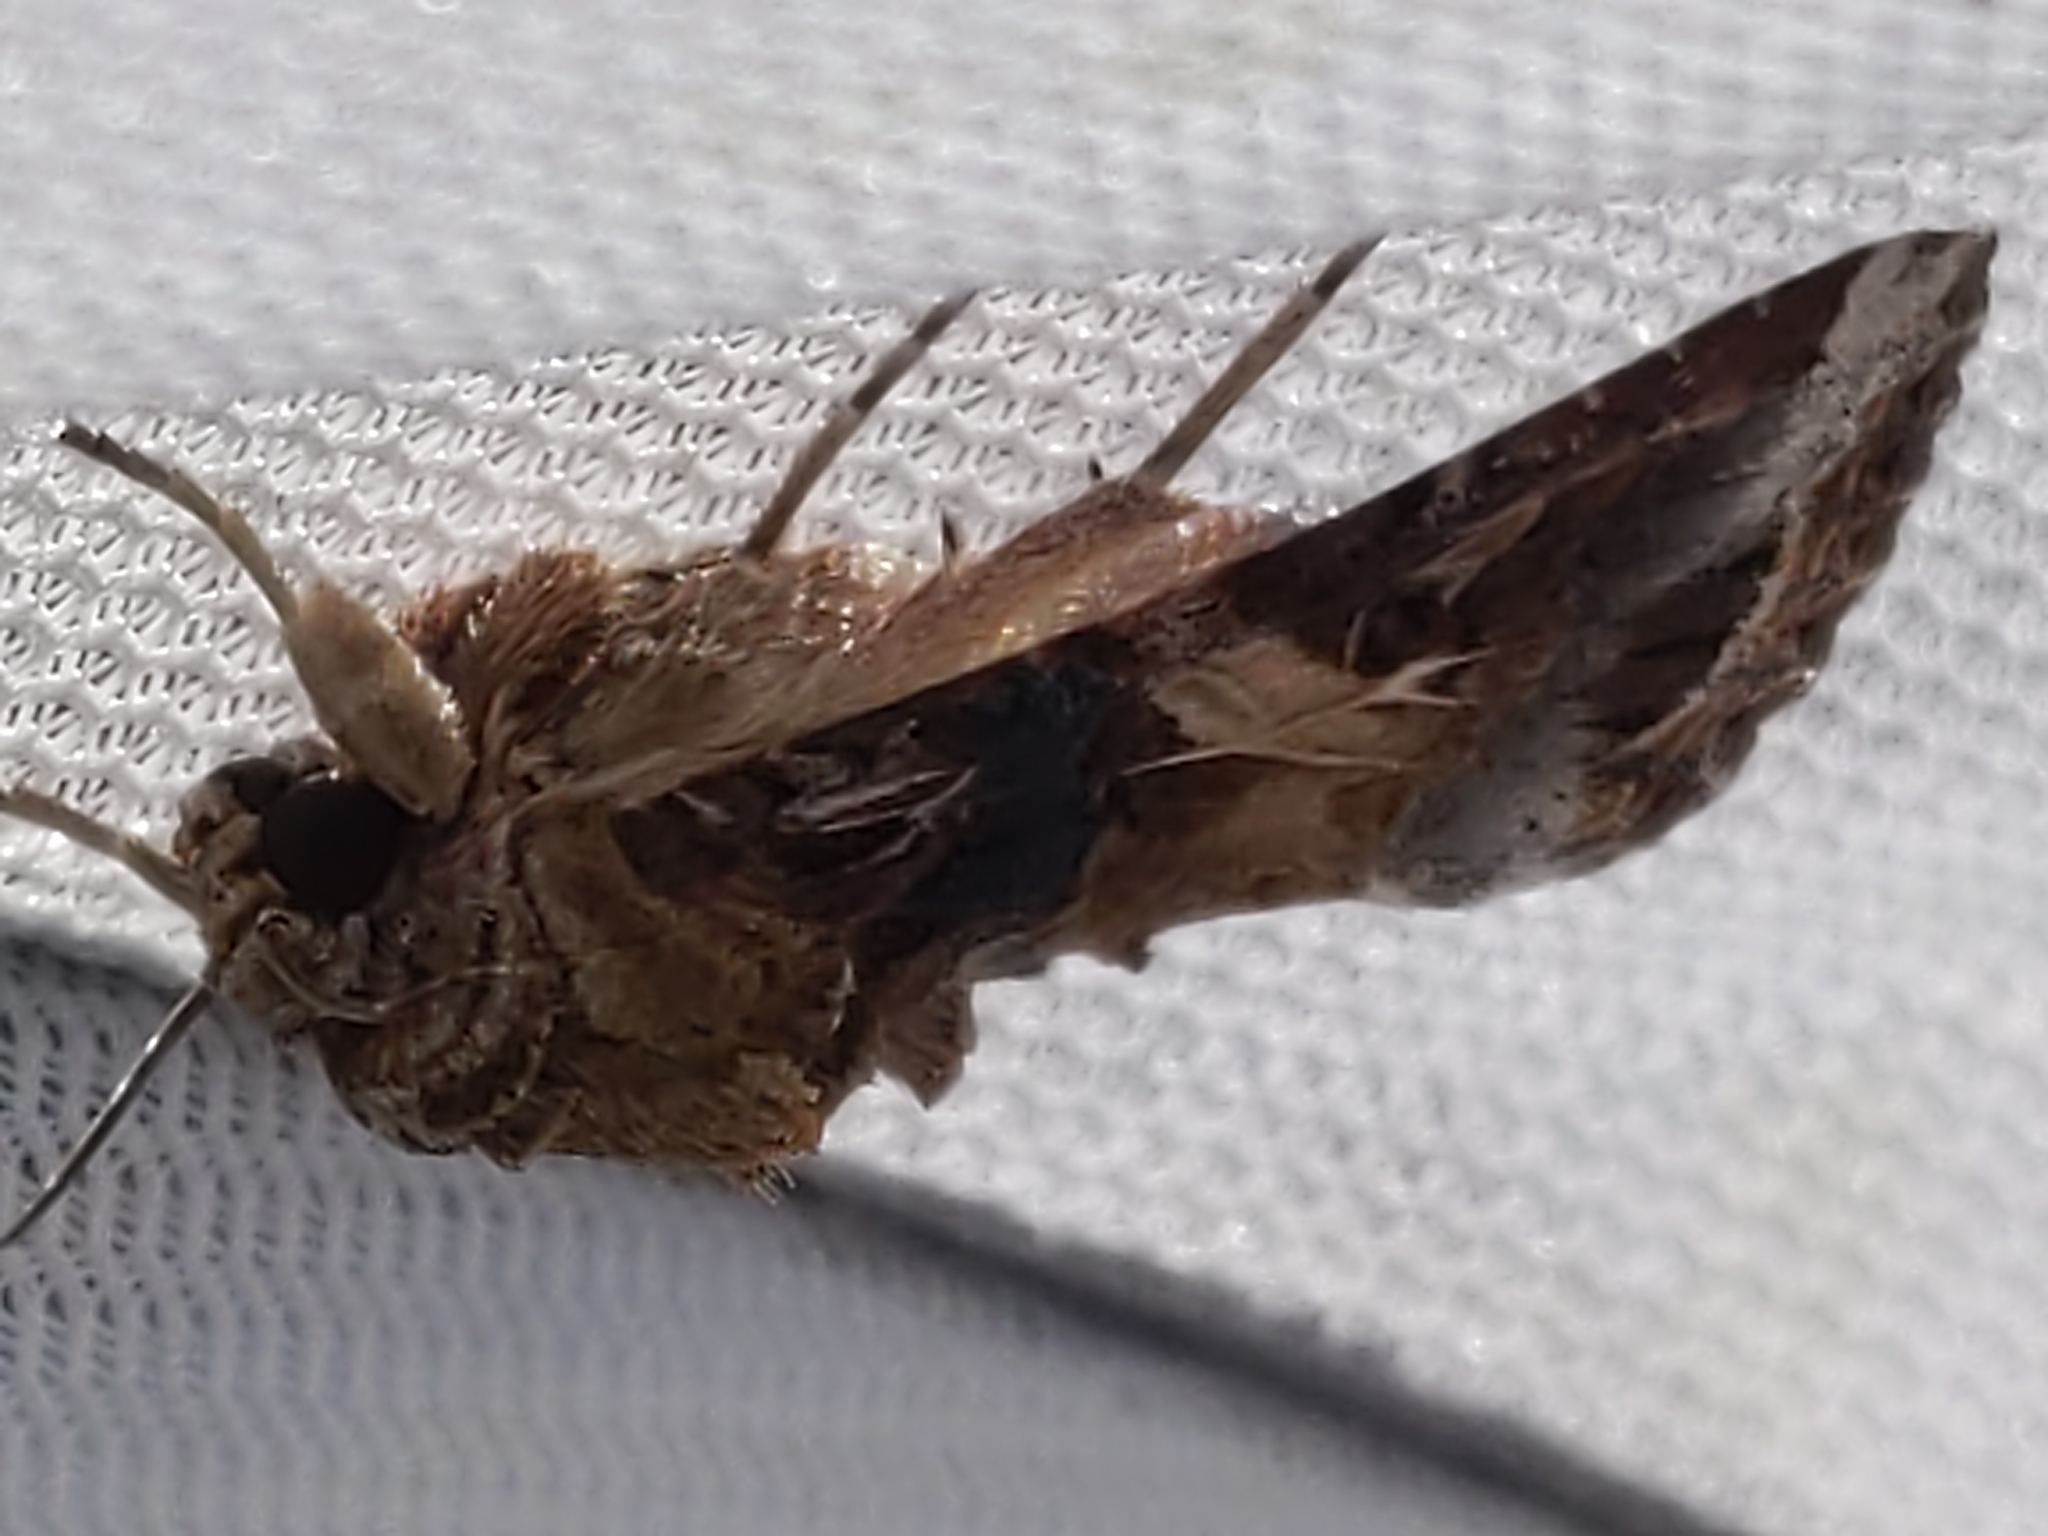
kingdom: Animalia
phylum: Arthropoda
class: Insecta
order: Lepidoptera
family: Noctuidae
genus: Spodoptera
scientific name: Spodoptera ornithogalli
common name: Yellow-striped armyworm
